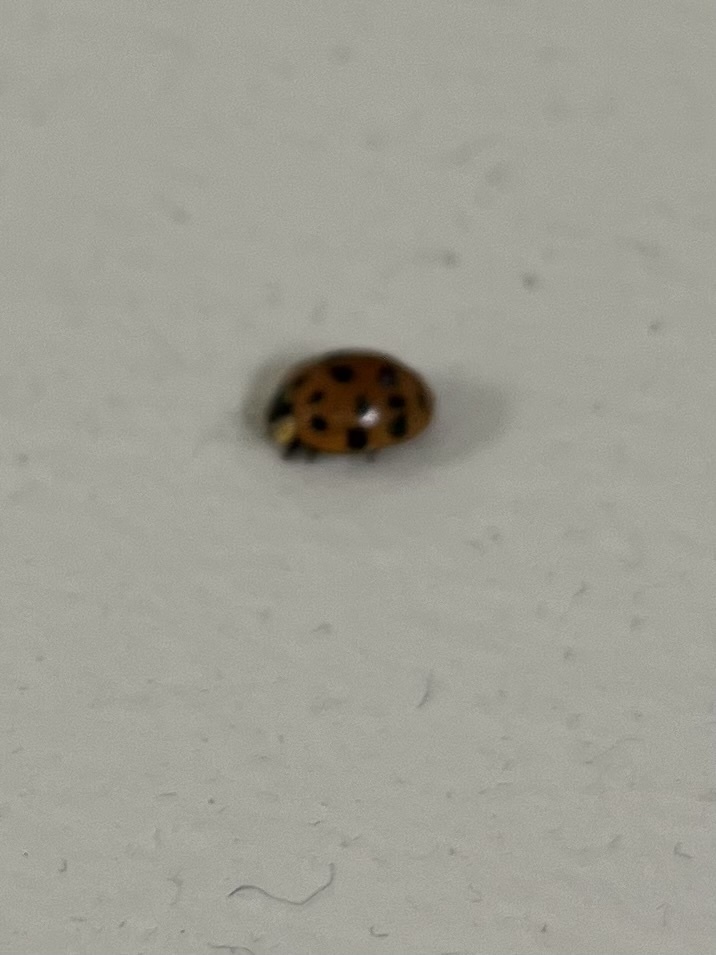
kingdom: Animalia
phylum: Arthropoda
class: Insecta
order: Coleoptera
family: Coccinellidae
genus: Harmonia
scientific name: Harmonia axyridis
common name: Harlequin ladybird
